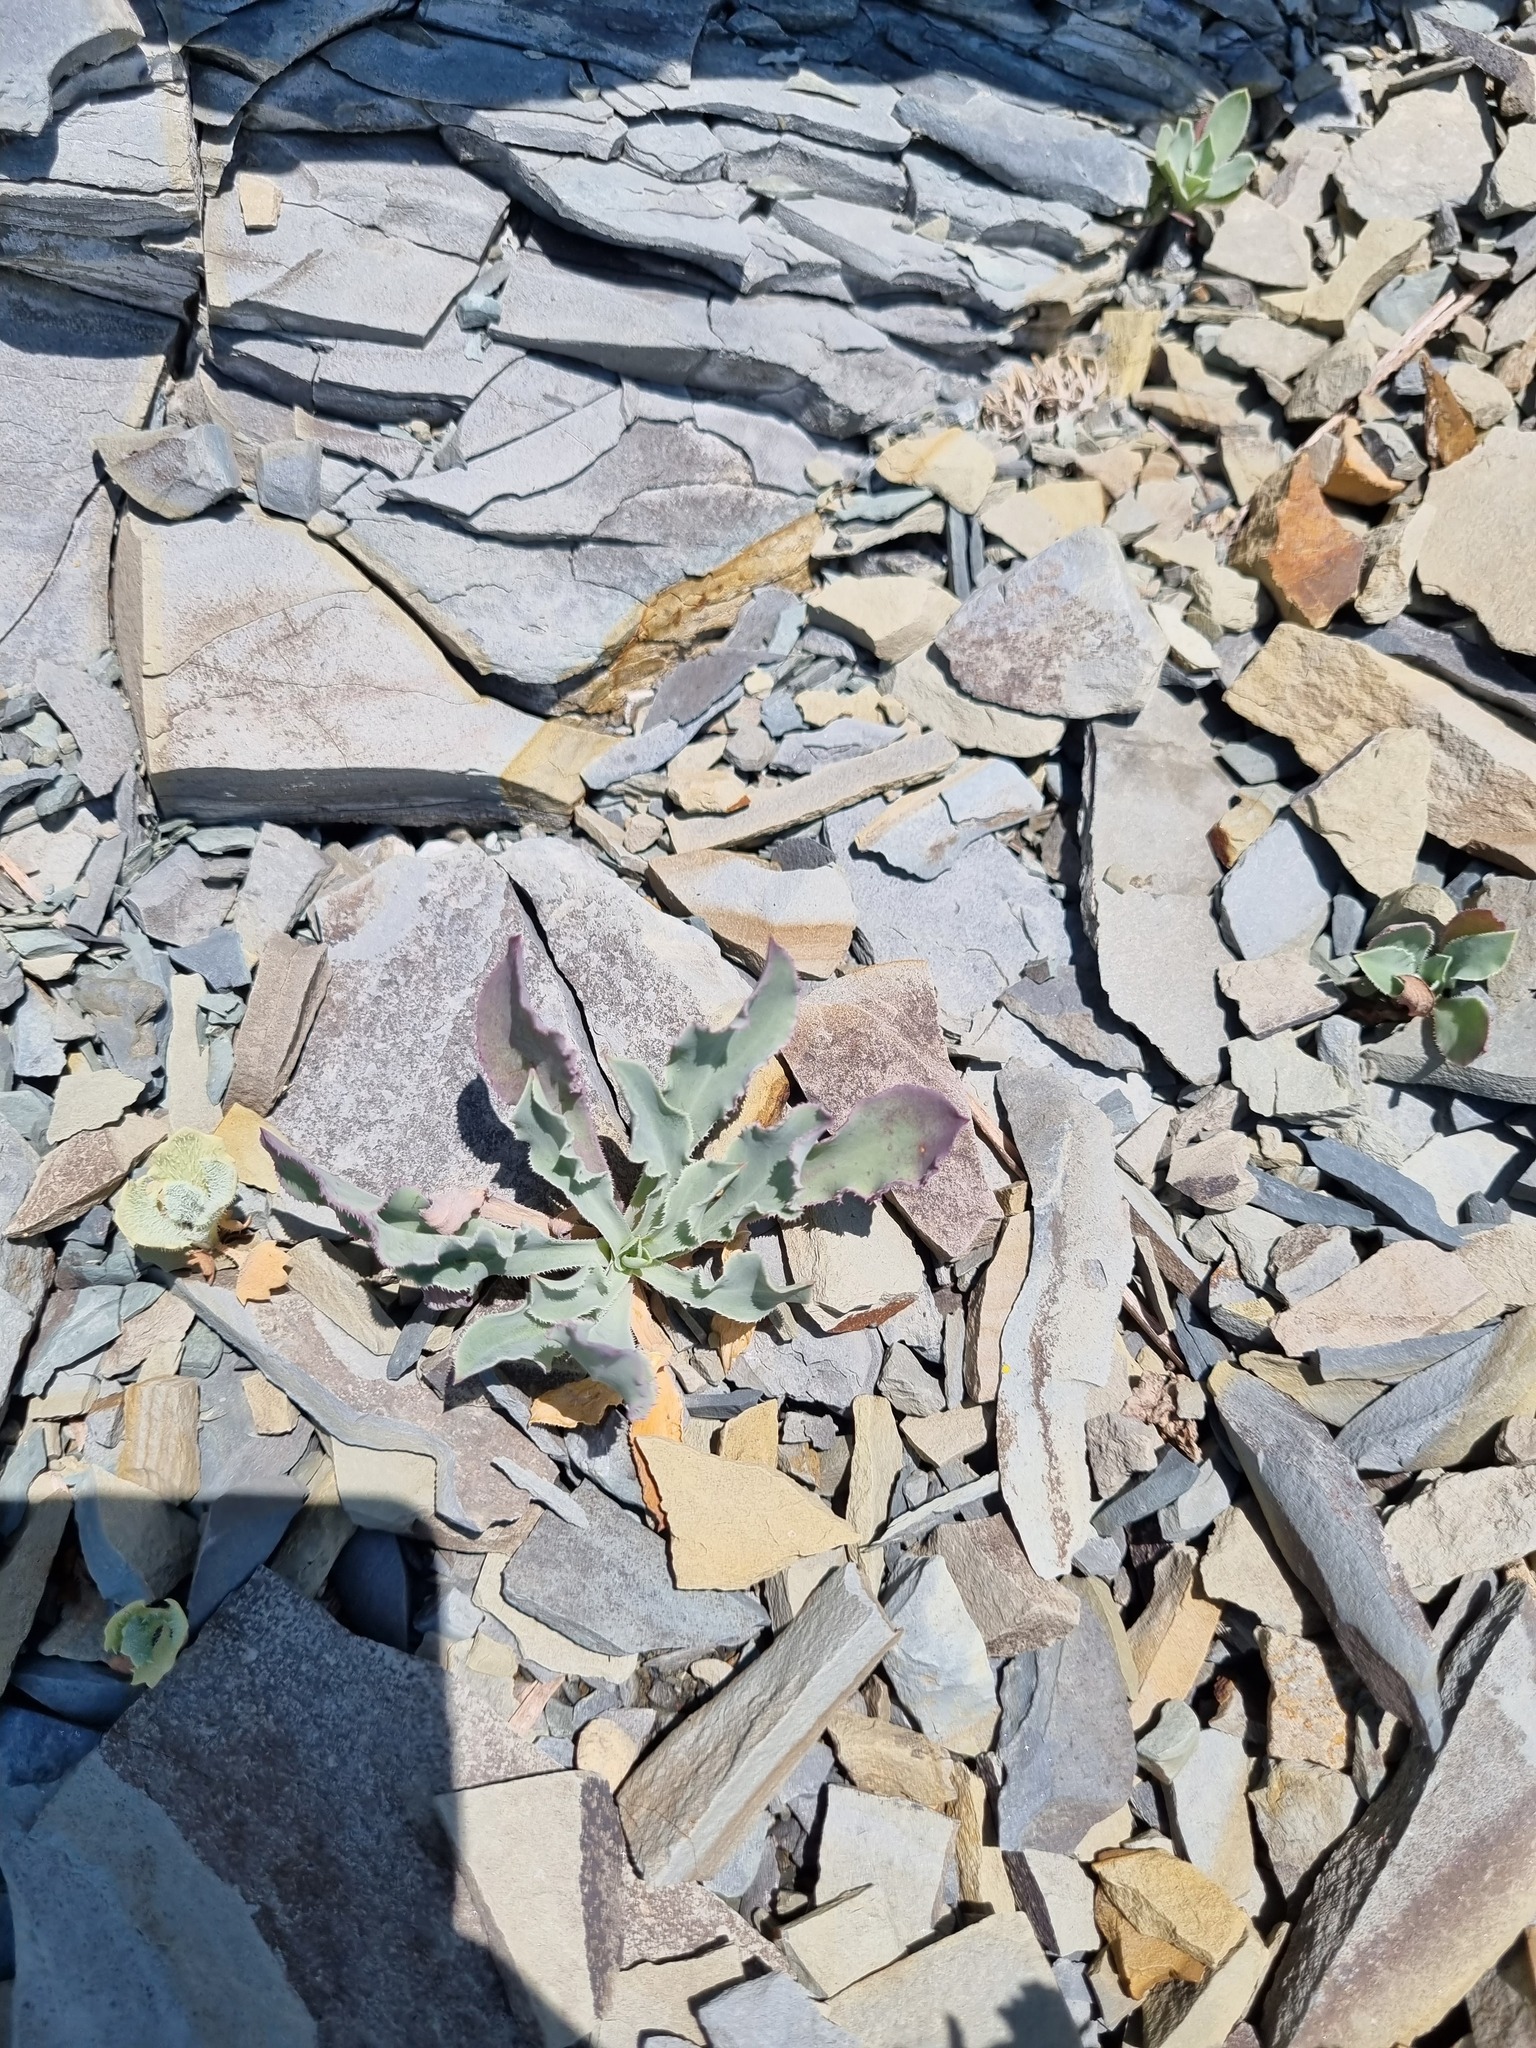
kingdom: Plantae
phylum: Tracheophyta
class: Magnoliopsida
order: Caryophyllales
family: Caryophyllaceae
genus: Silene
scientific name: Silene crispata
